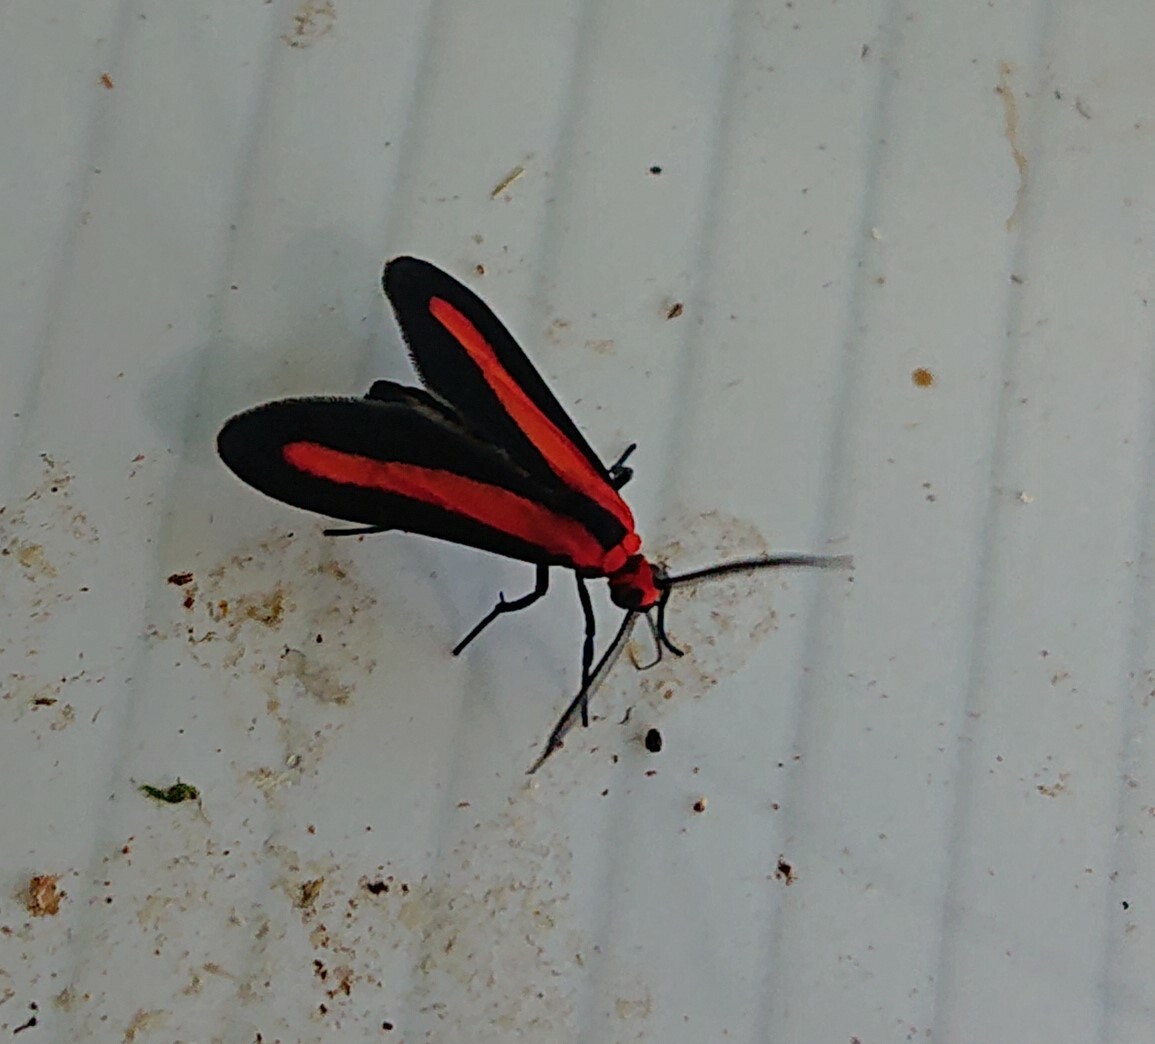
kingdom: Animalia
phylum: Arthropoda
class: Insecta
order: Lepidoptera
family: Erebidae
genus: Tipulodes
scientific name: Tipulodes rubriceps
